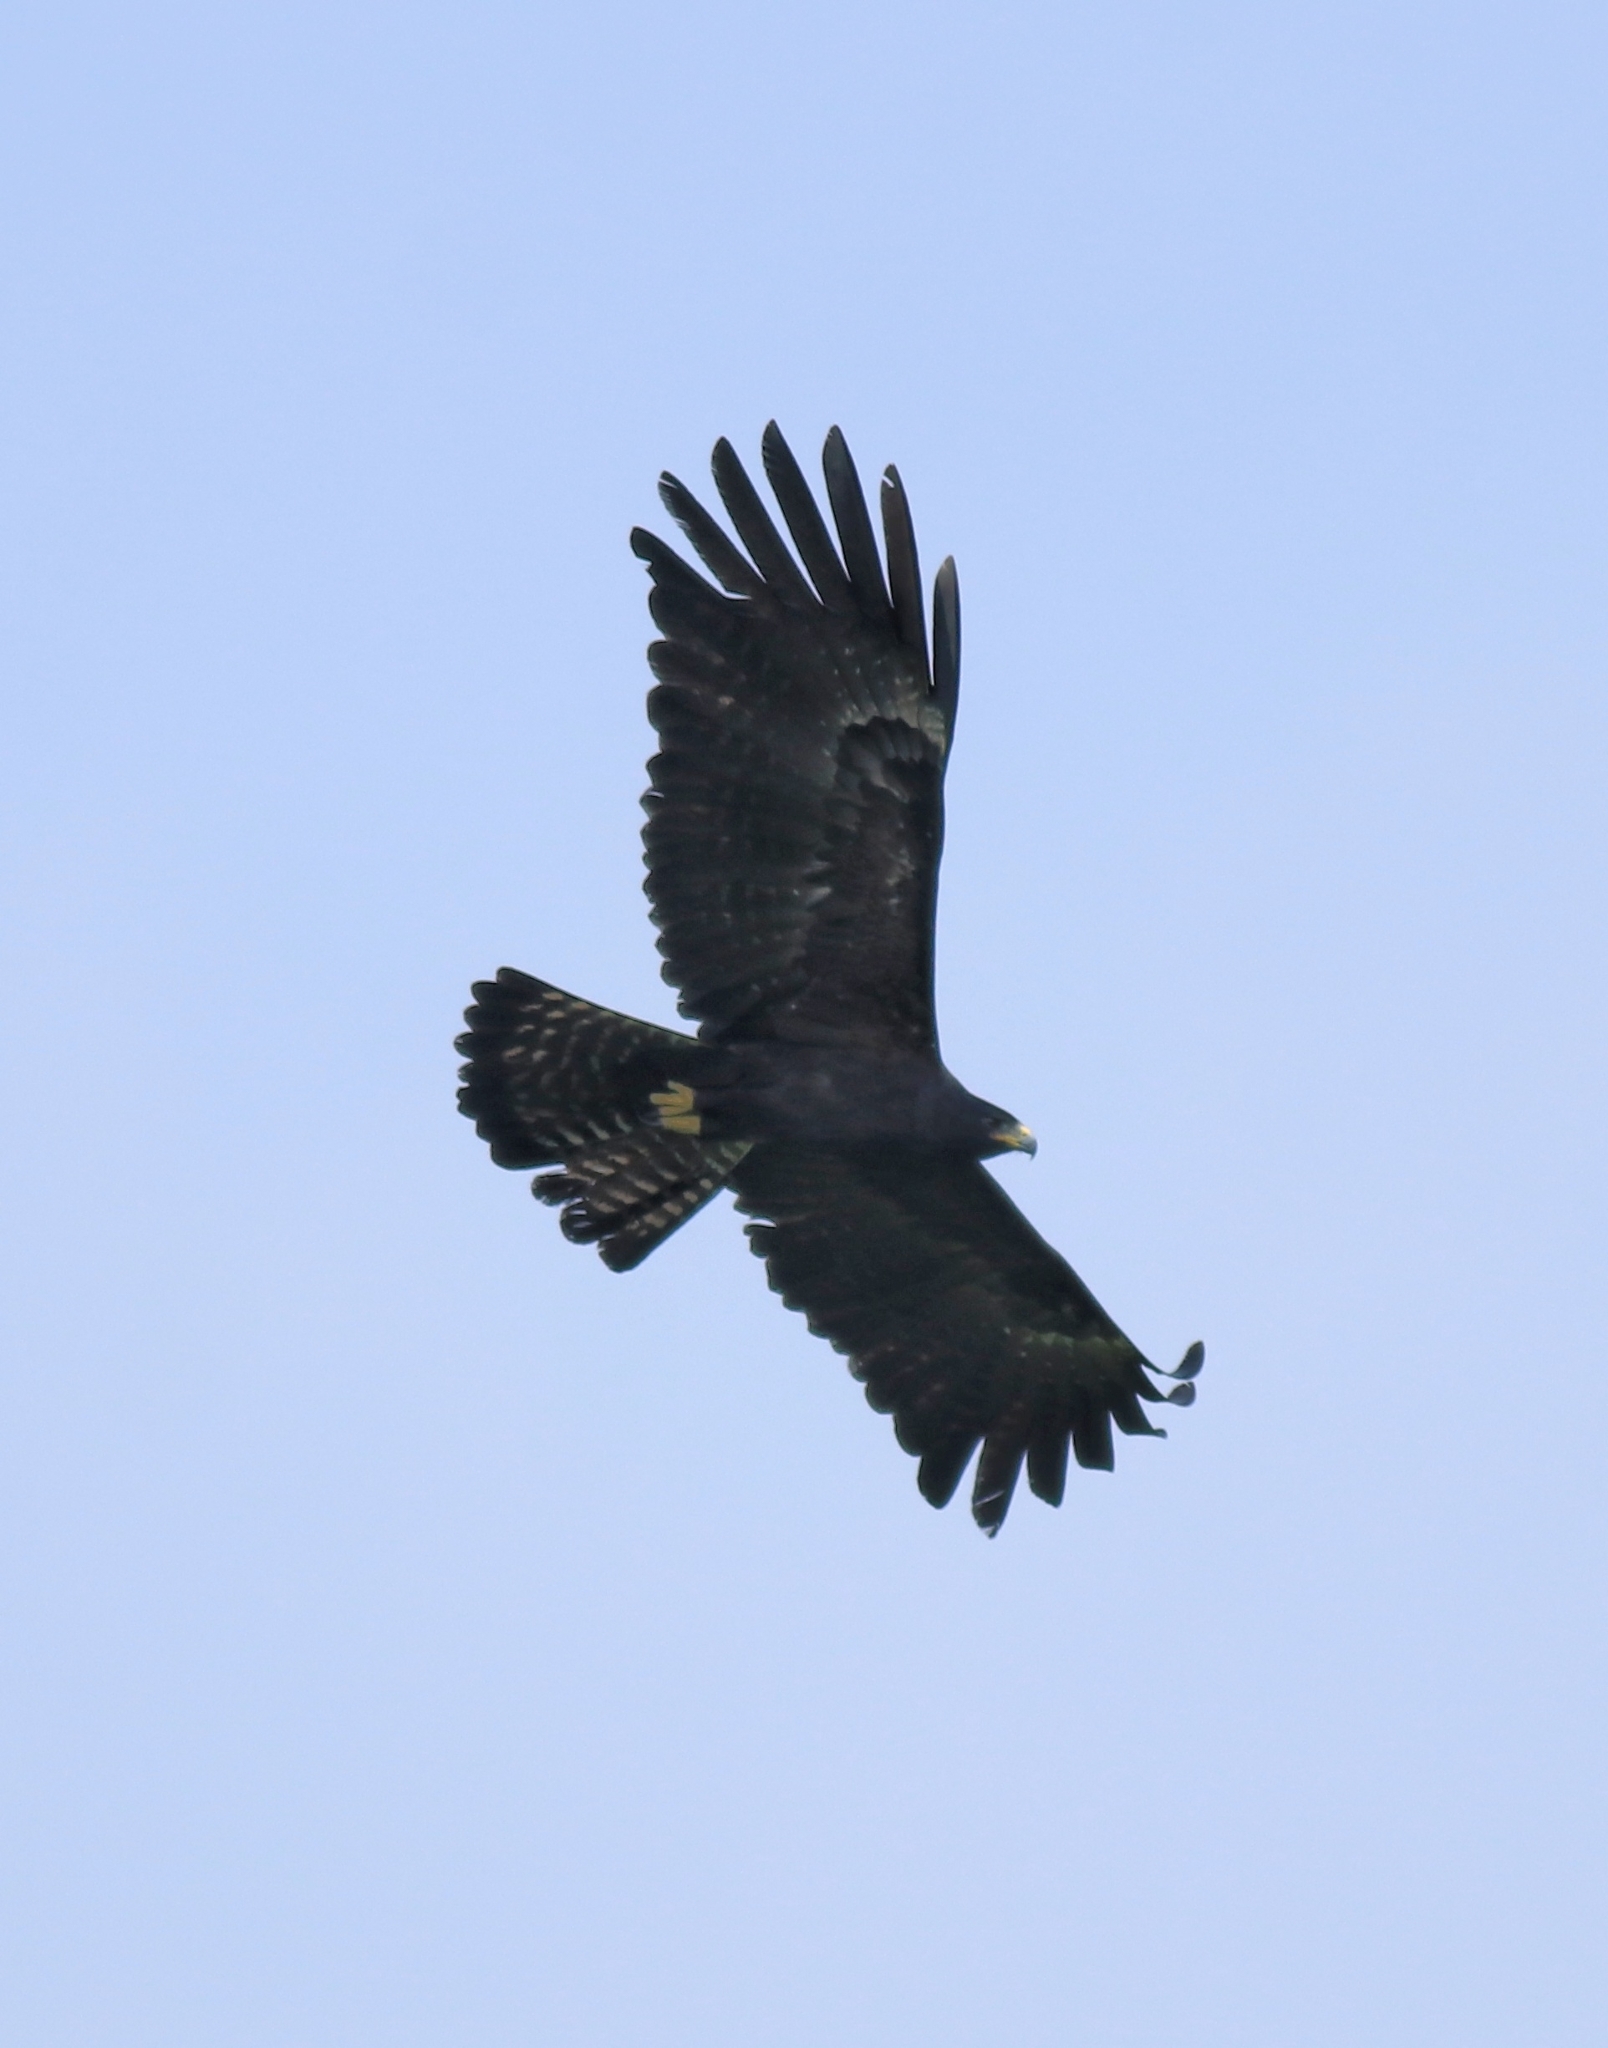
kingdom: Animalia
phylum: Chordata
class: Aves
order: Accipitriformes
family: Accipitridae
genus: Ictinaetus
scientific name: Ictinaetus malayensis
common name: Black eagle
